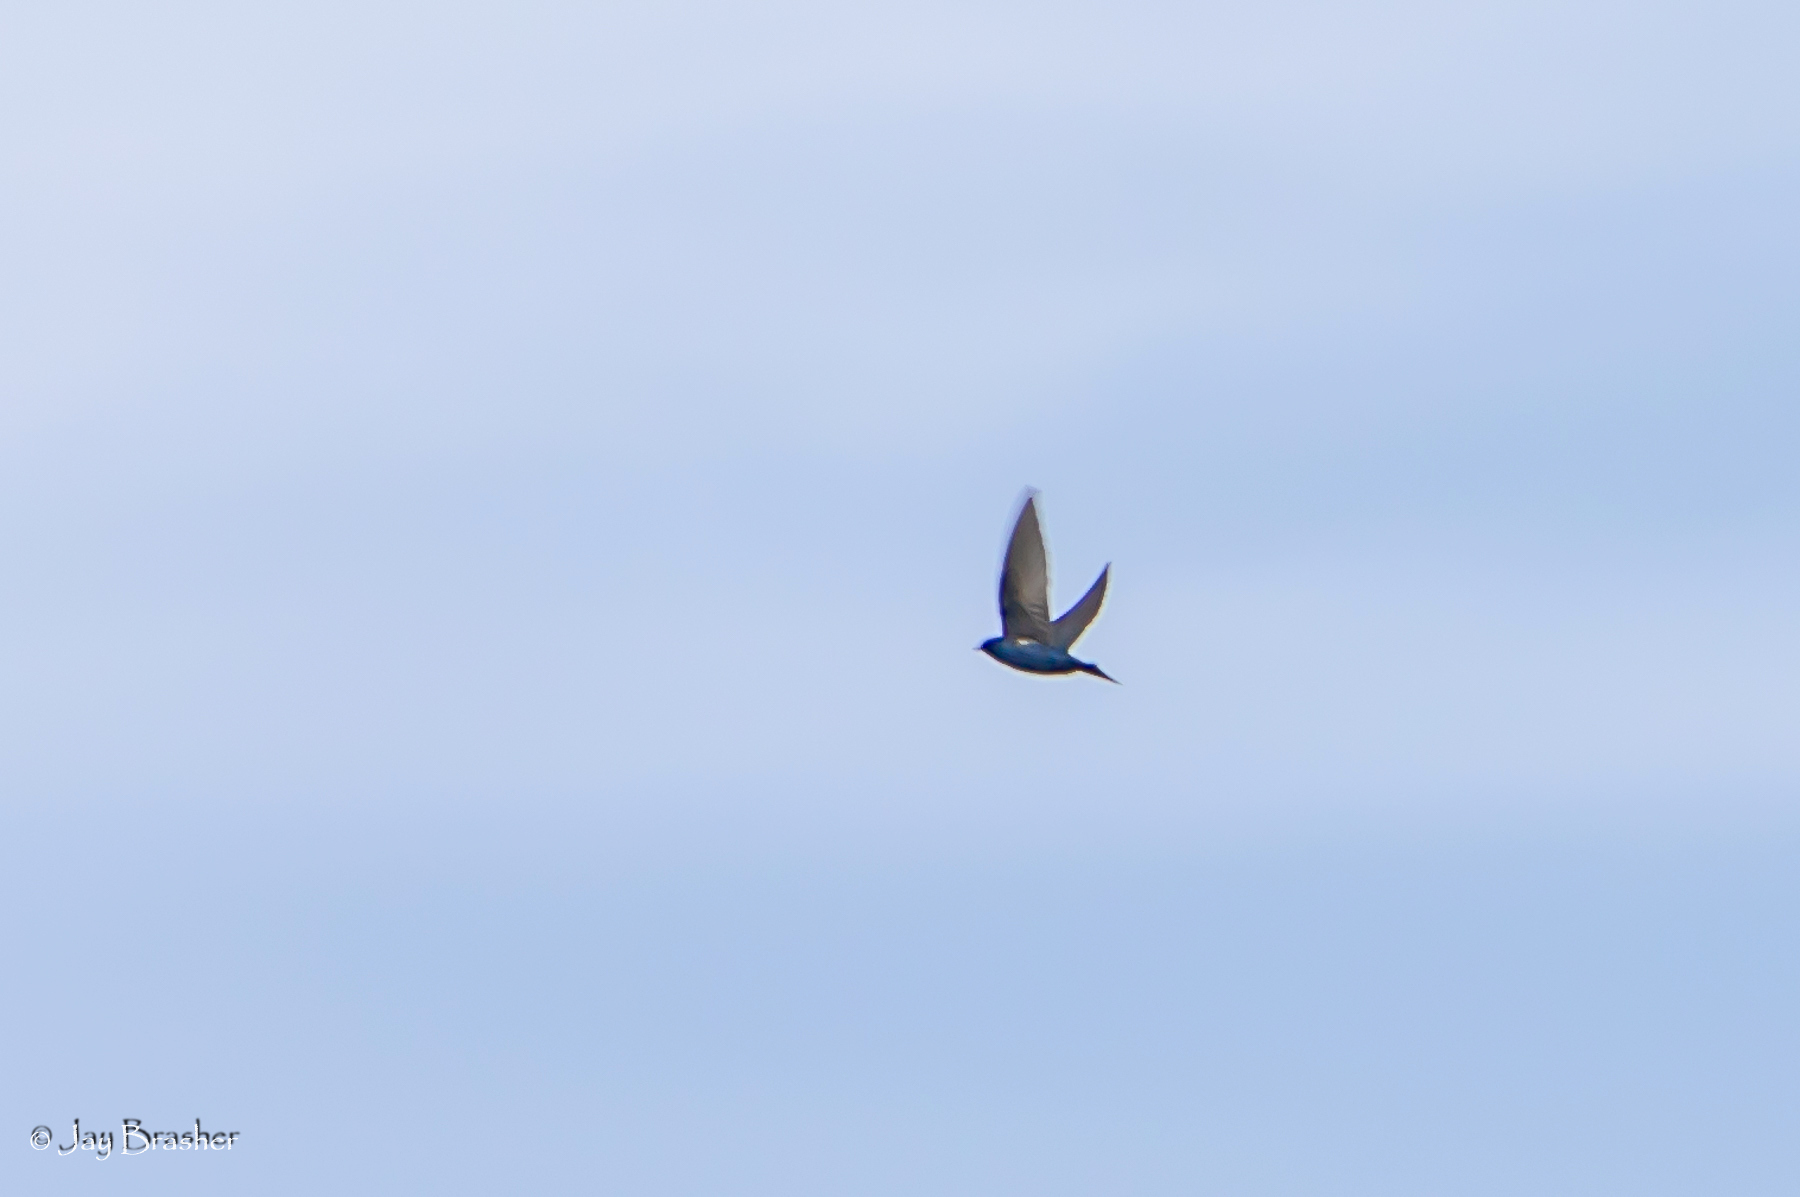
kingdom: Animalia
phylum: Chordata
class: Aves
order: Passeriformes
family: Hirundinidae
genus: Progne
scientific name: Progne subis
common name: Purple martin
